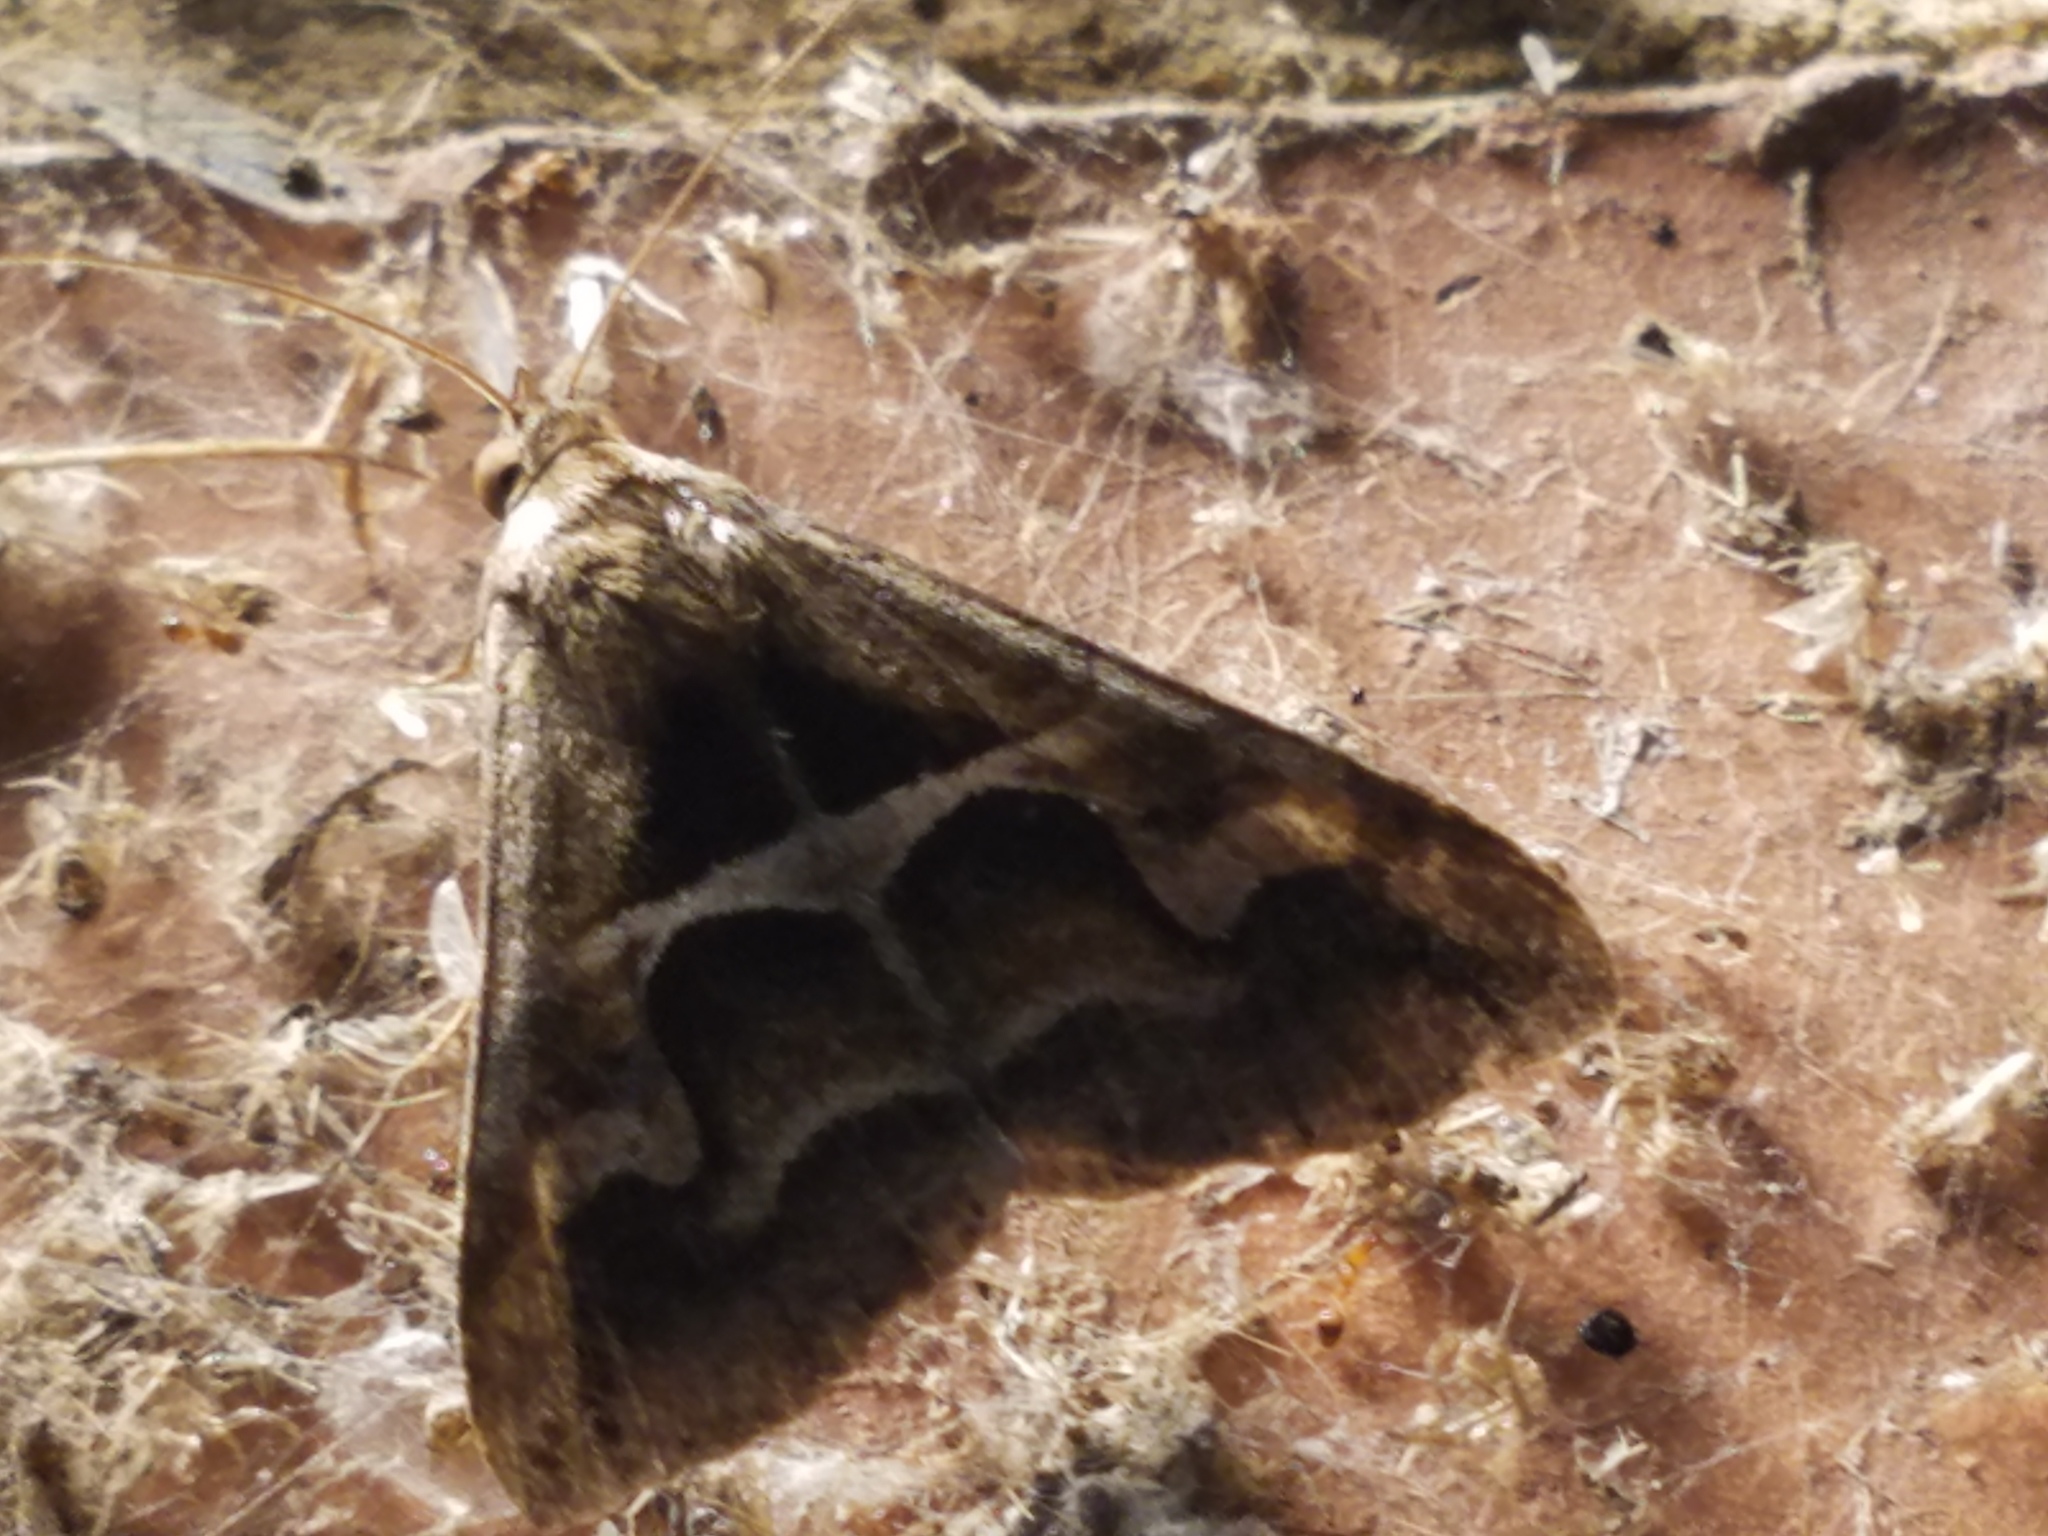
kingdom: Animalia
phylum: Arthropoda
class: Insecta
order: Lepidoptera
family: Erebidae
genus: Melipotis
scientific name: Melipotis cellaris
